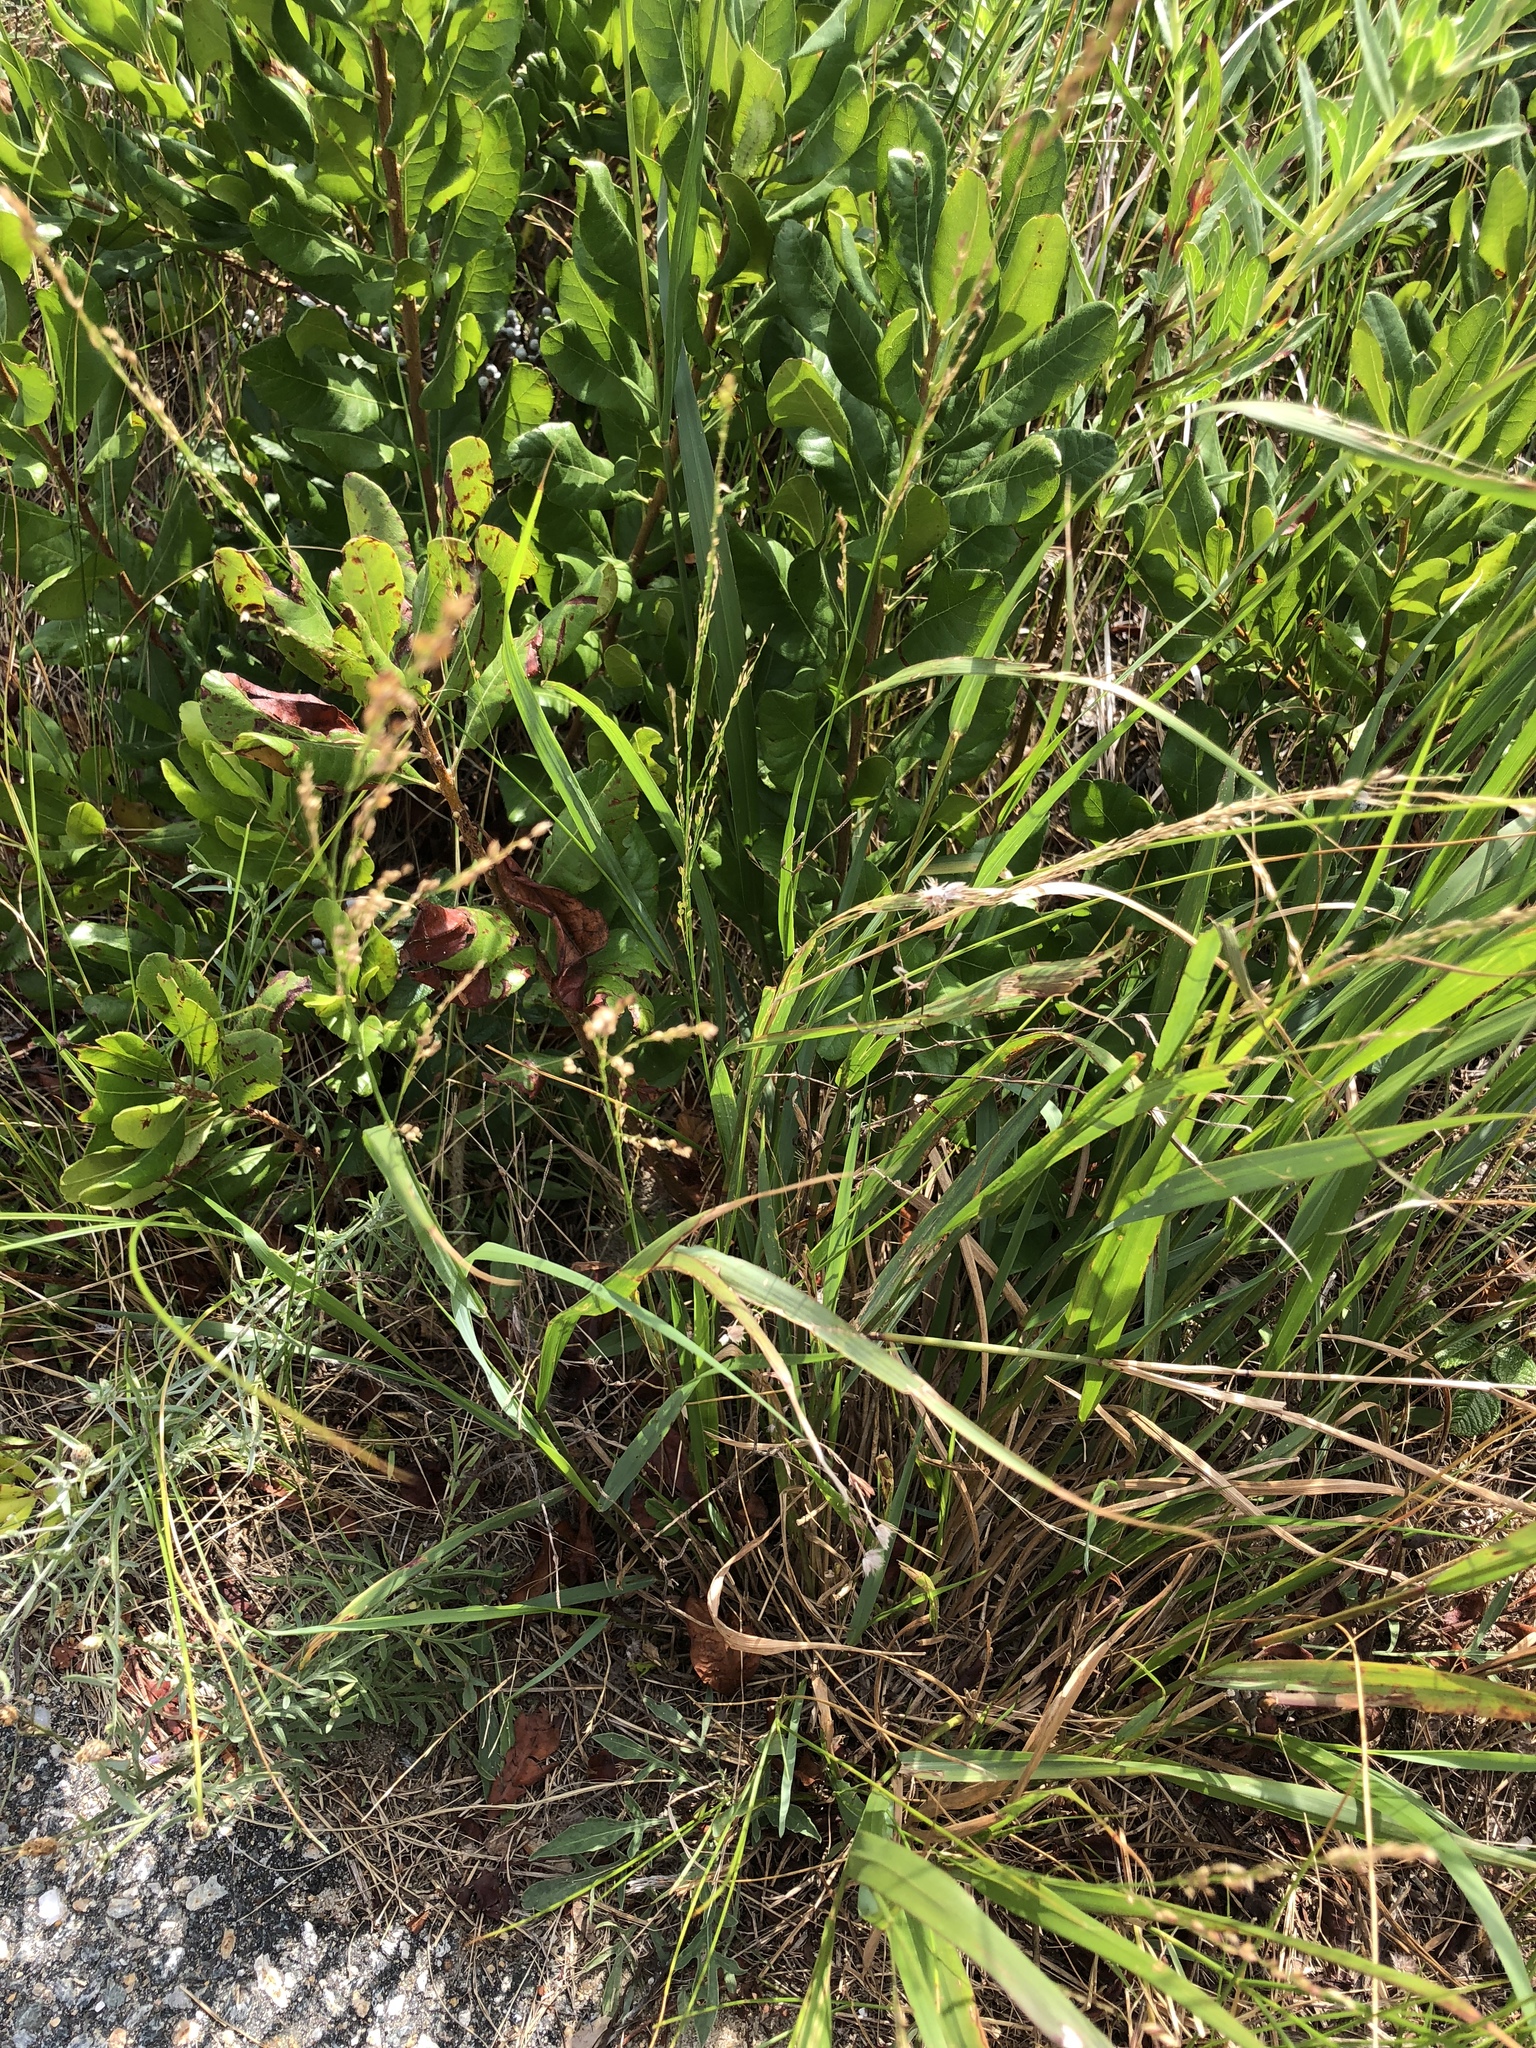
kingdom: Plantae
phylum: Tracheophyta
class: Magnoliopsida
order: Fagales
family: Myricaceae
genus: Morella
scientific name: Morella pensylvanica
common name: Northern bayberry
